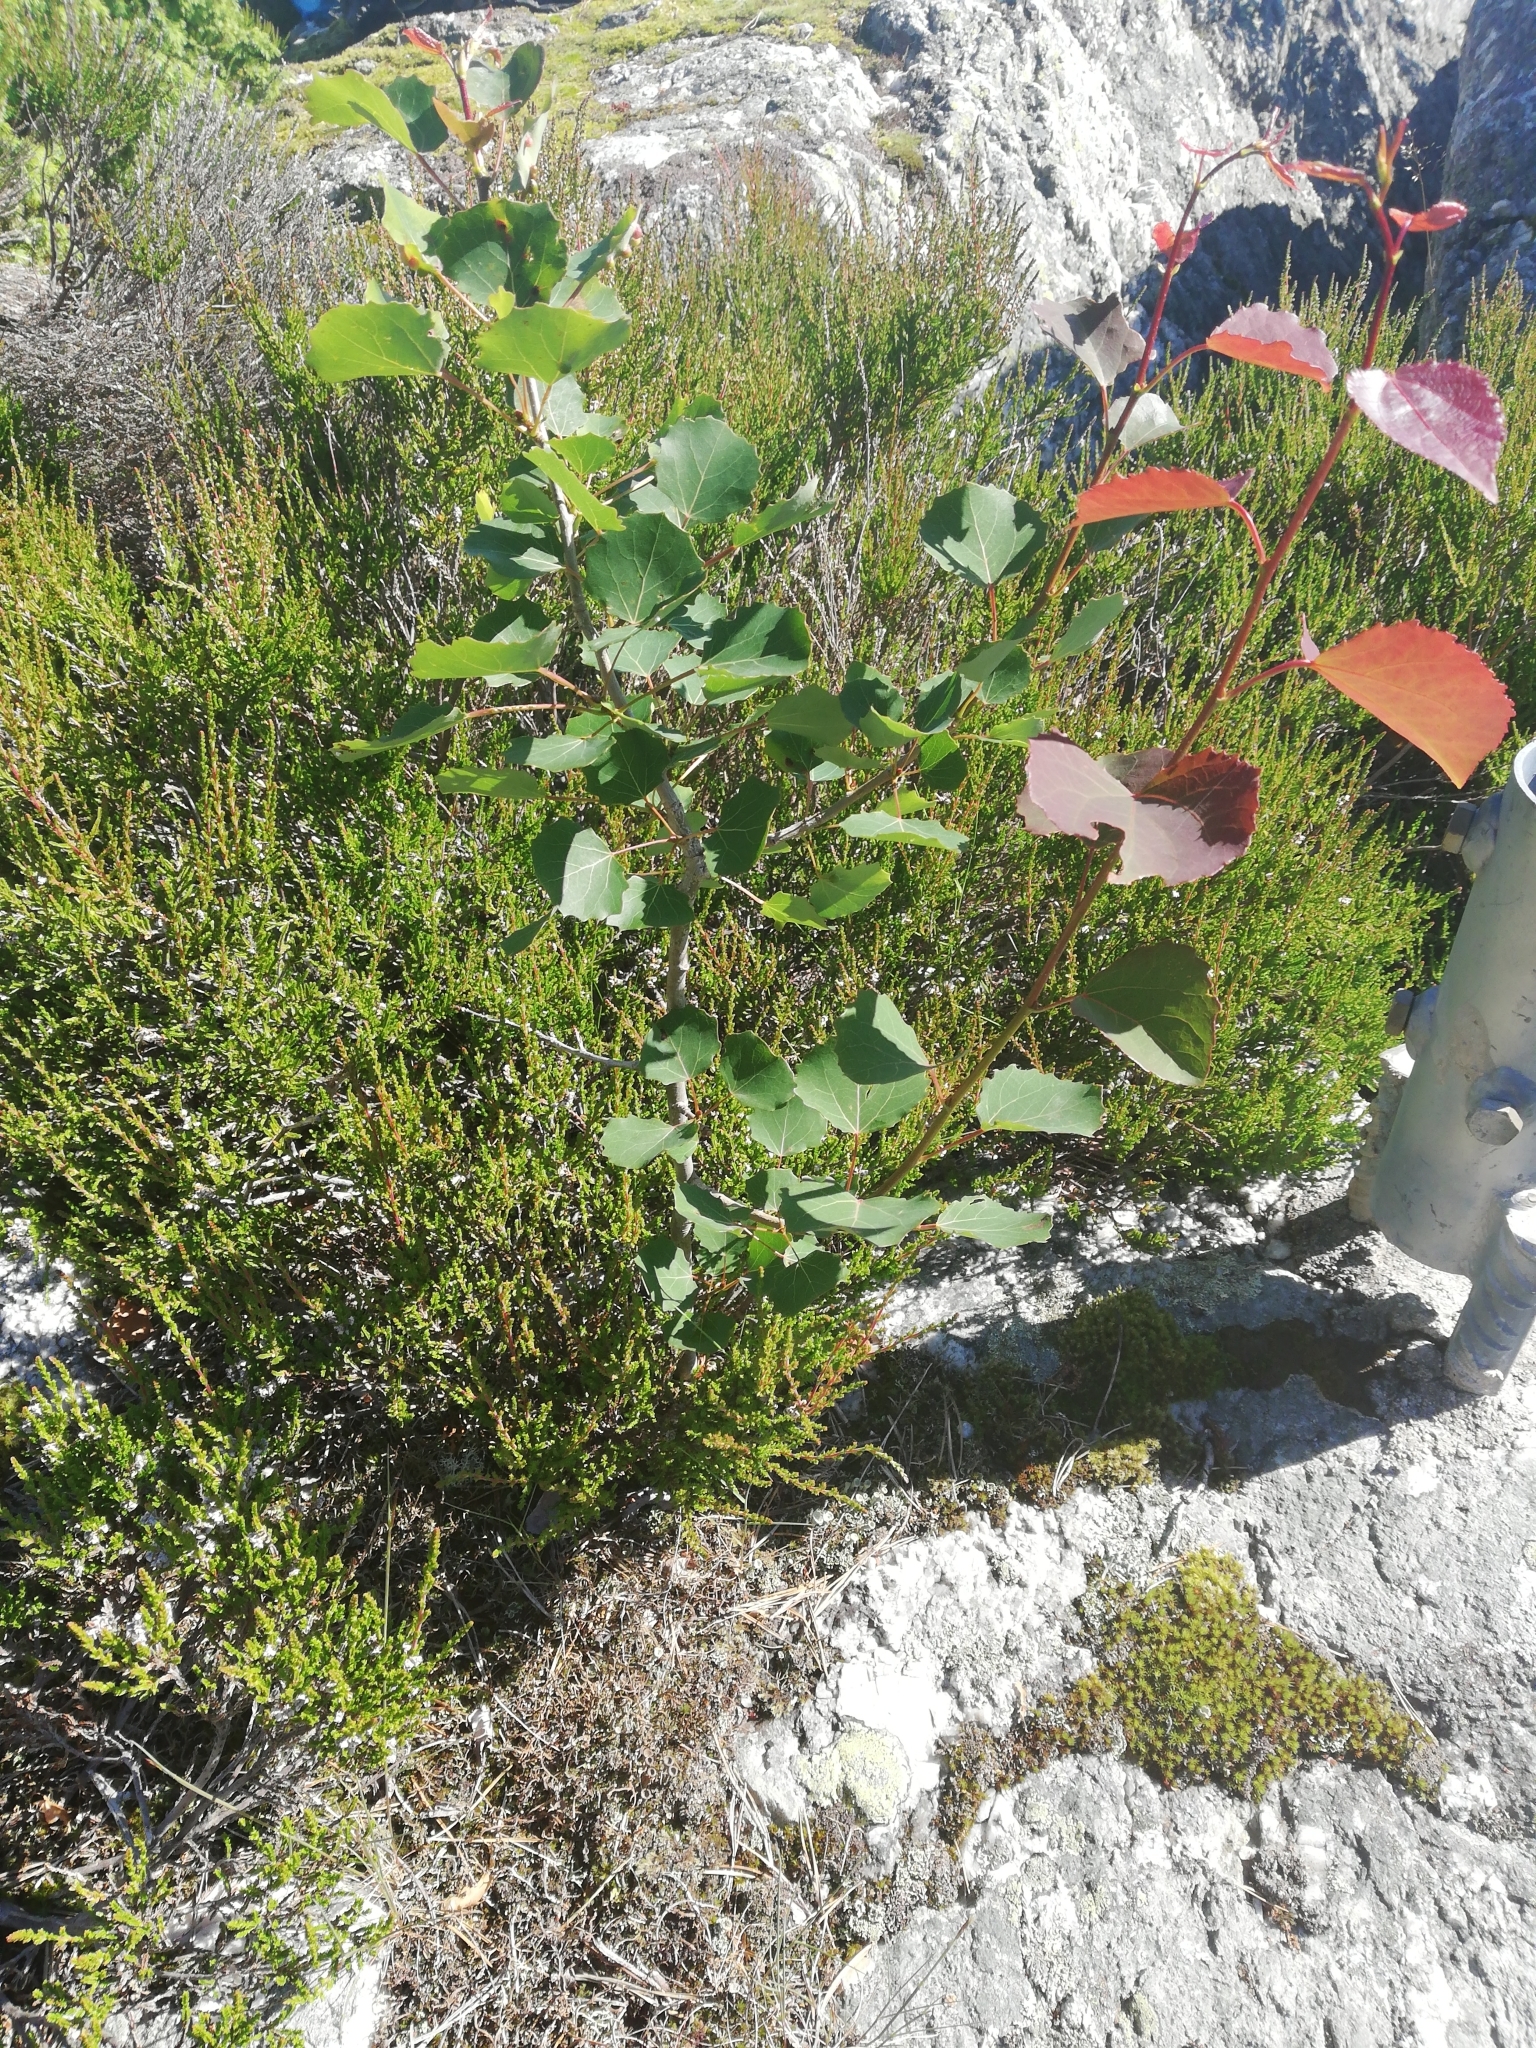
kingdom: Plantae
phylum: Tracheophyta
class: Magnoliopsida
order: Malpighiales
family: Salicaceae
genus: Populus
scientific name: Populus tremula
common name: European aspen
